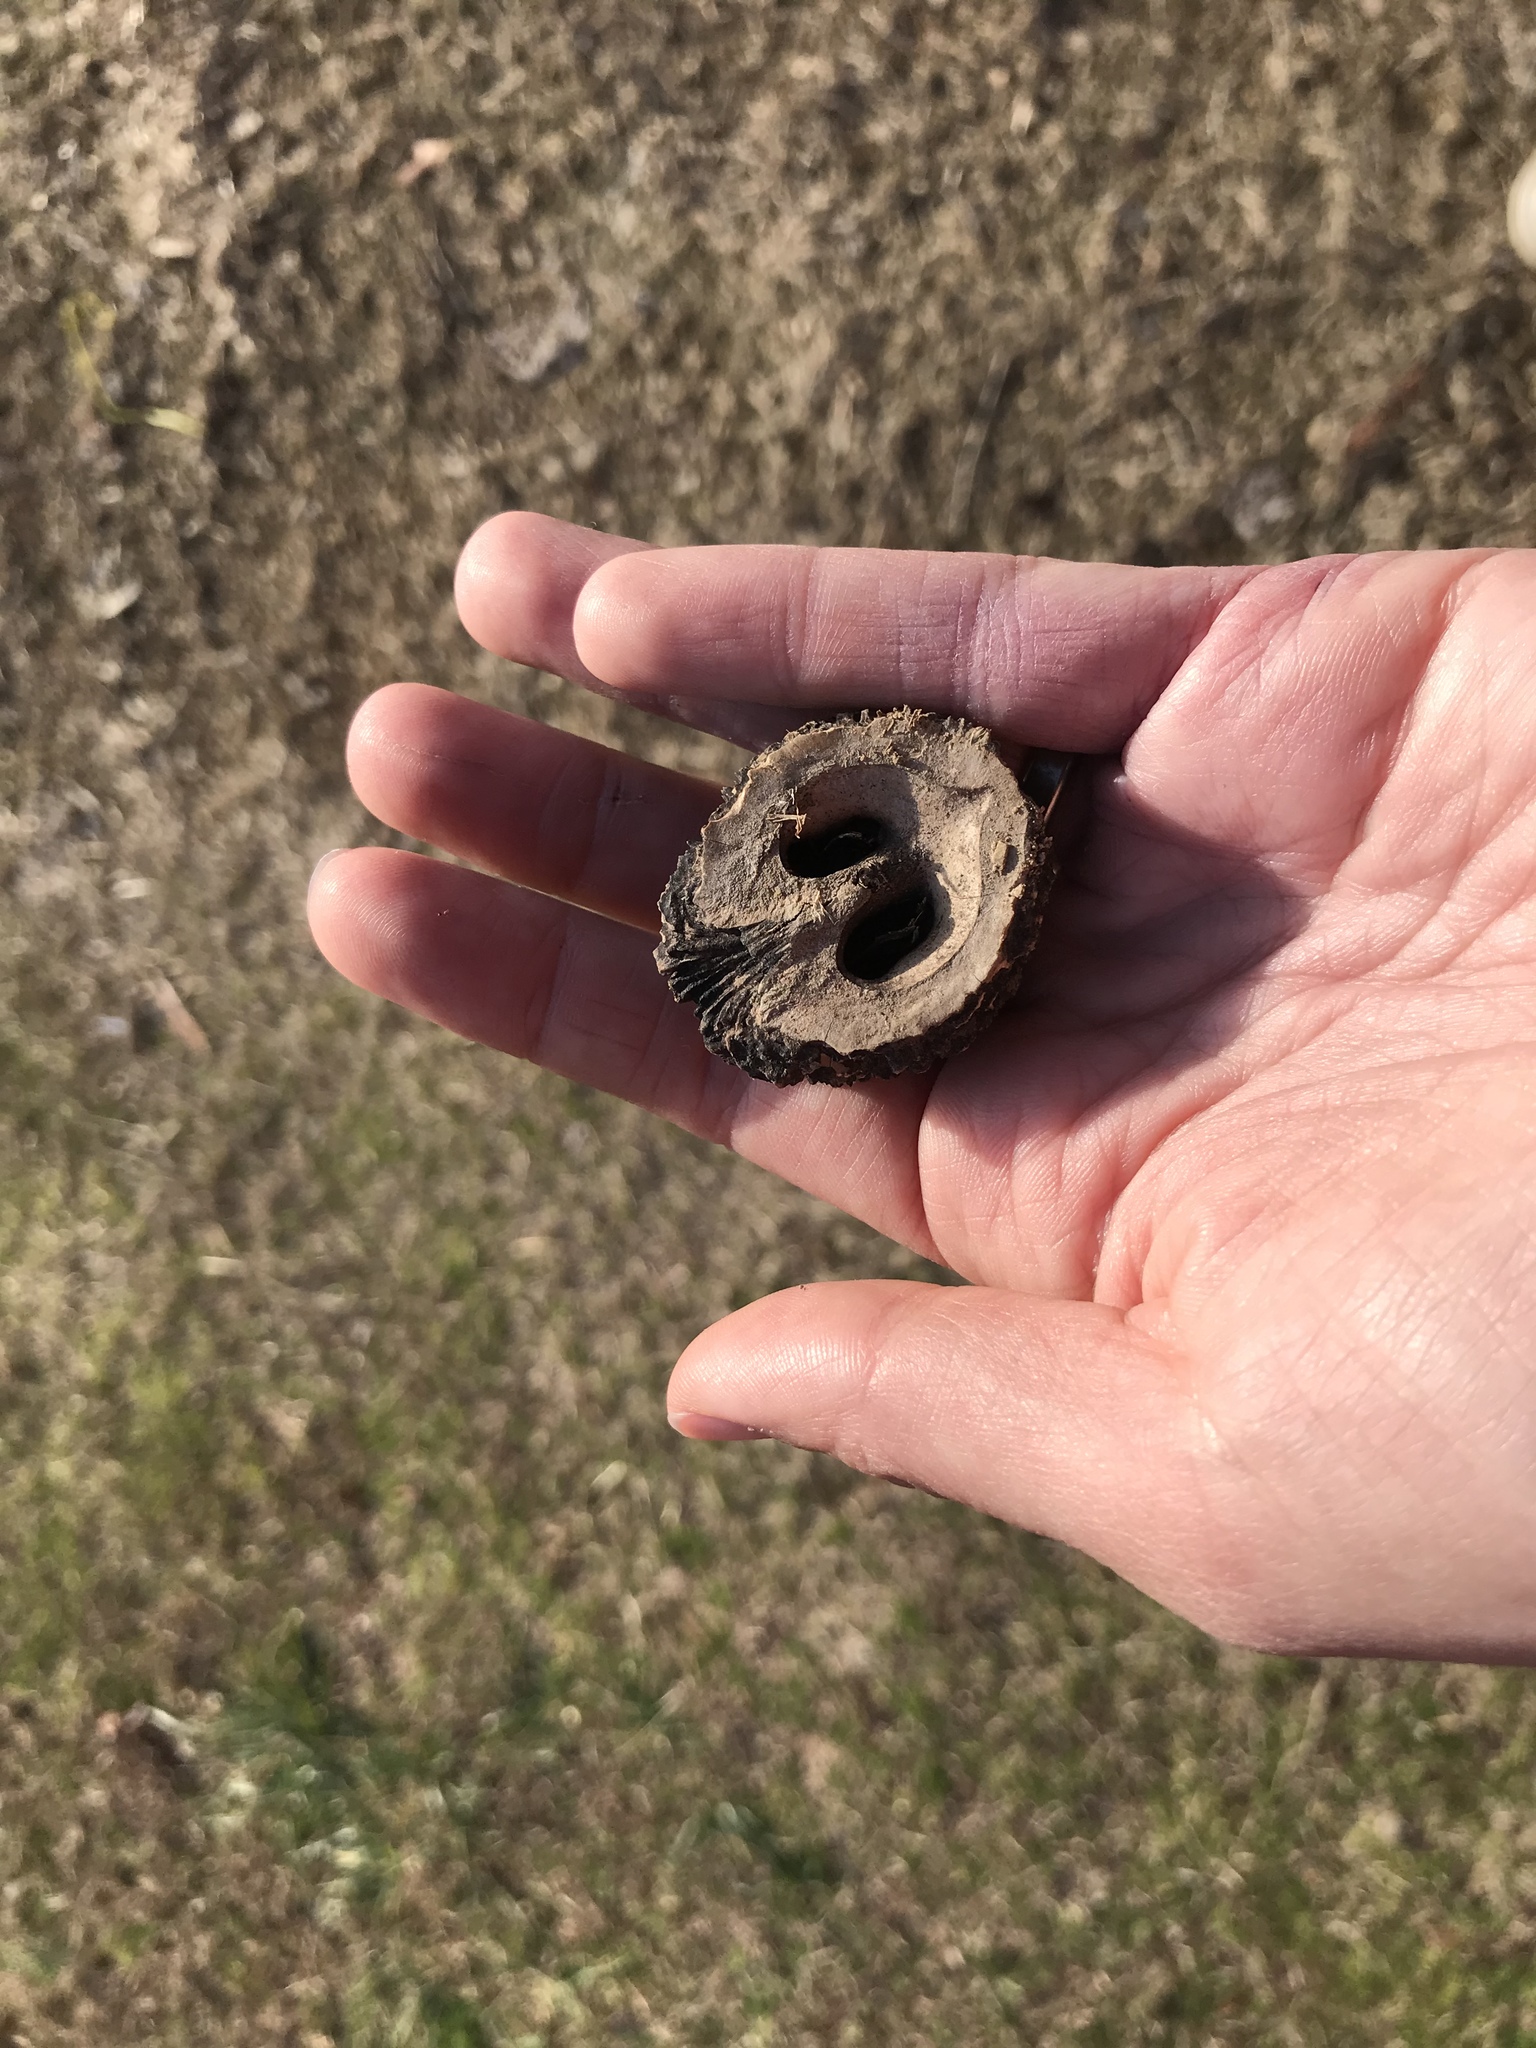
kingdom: Plantae
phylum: Tracheophyta
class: Magnoliopsida
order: Fagales
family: Juglandaceae
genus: Juglans
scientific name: Juglans nigra
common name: Black walnut
